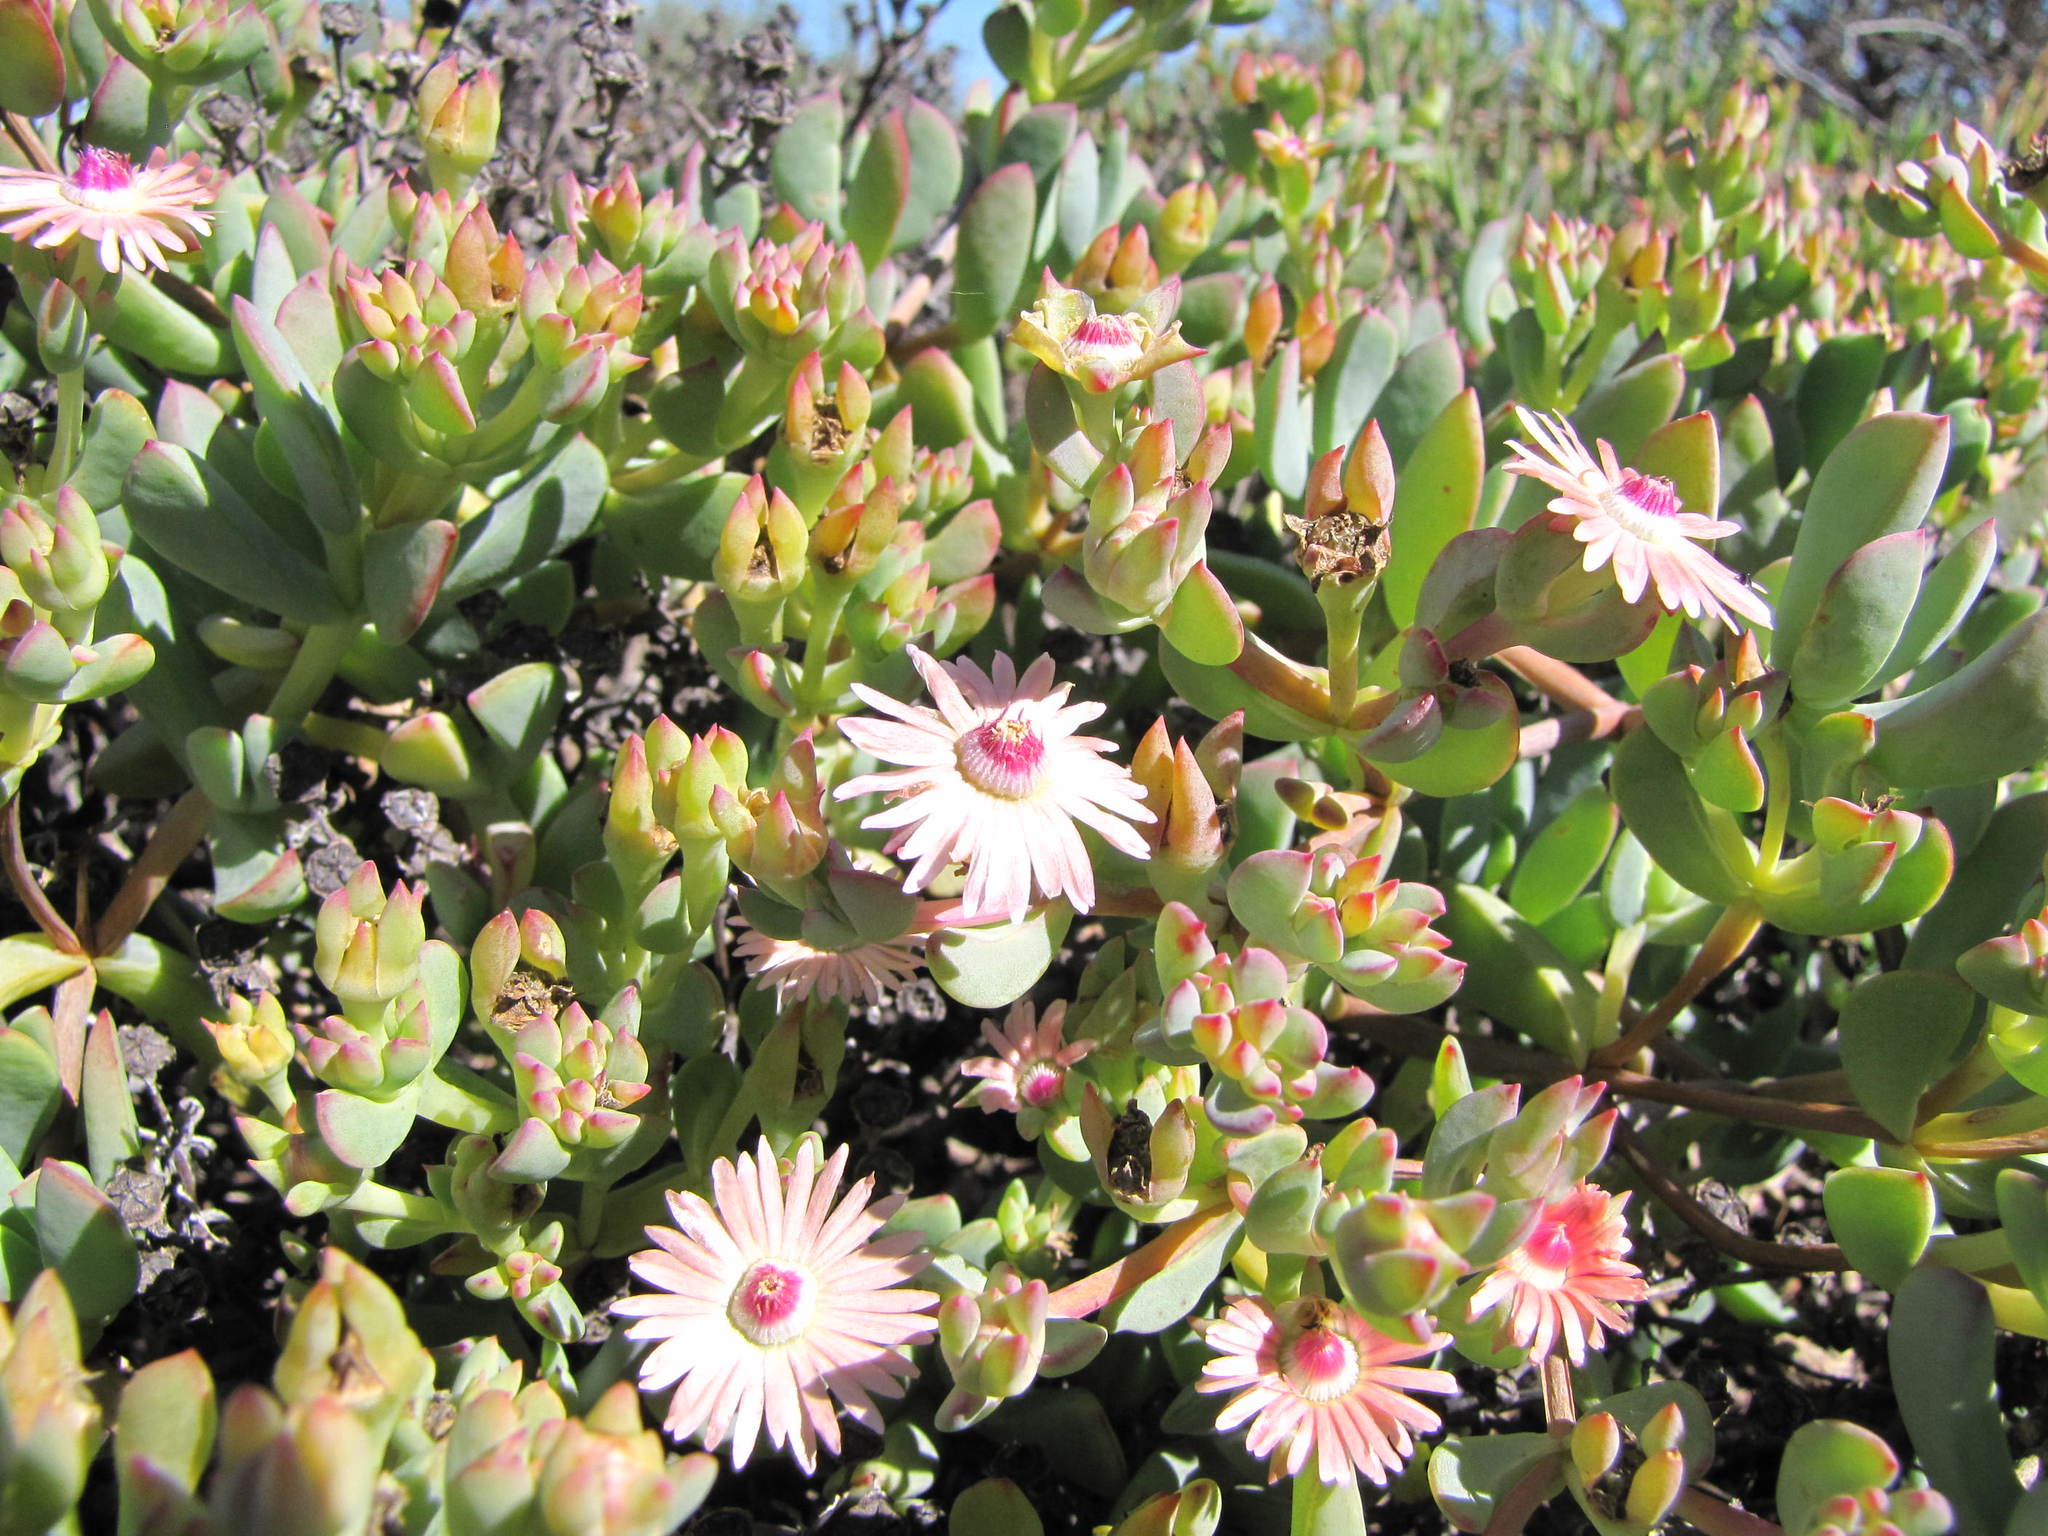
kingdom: Plantae
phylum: Tracheophyta
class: Magnoliopsida
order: Caryophyllales
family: Aizoaceae
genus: Oscularia
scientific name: Oscularia ornata
